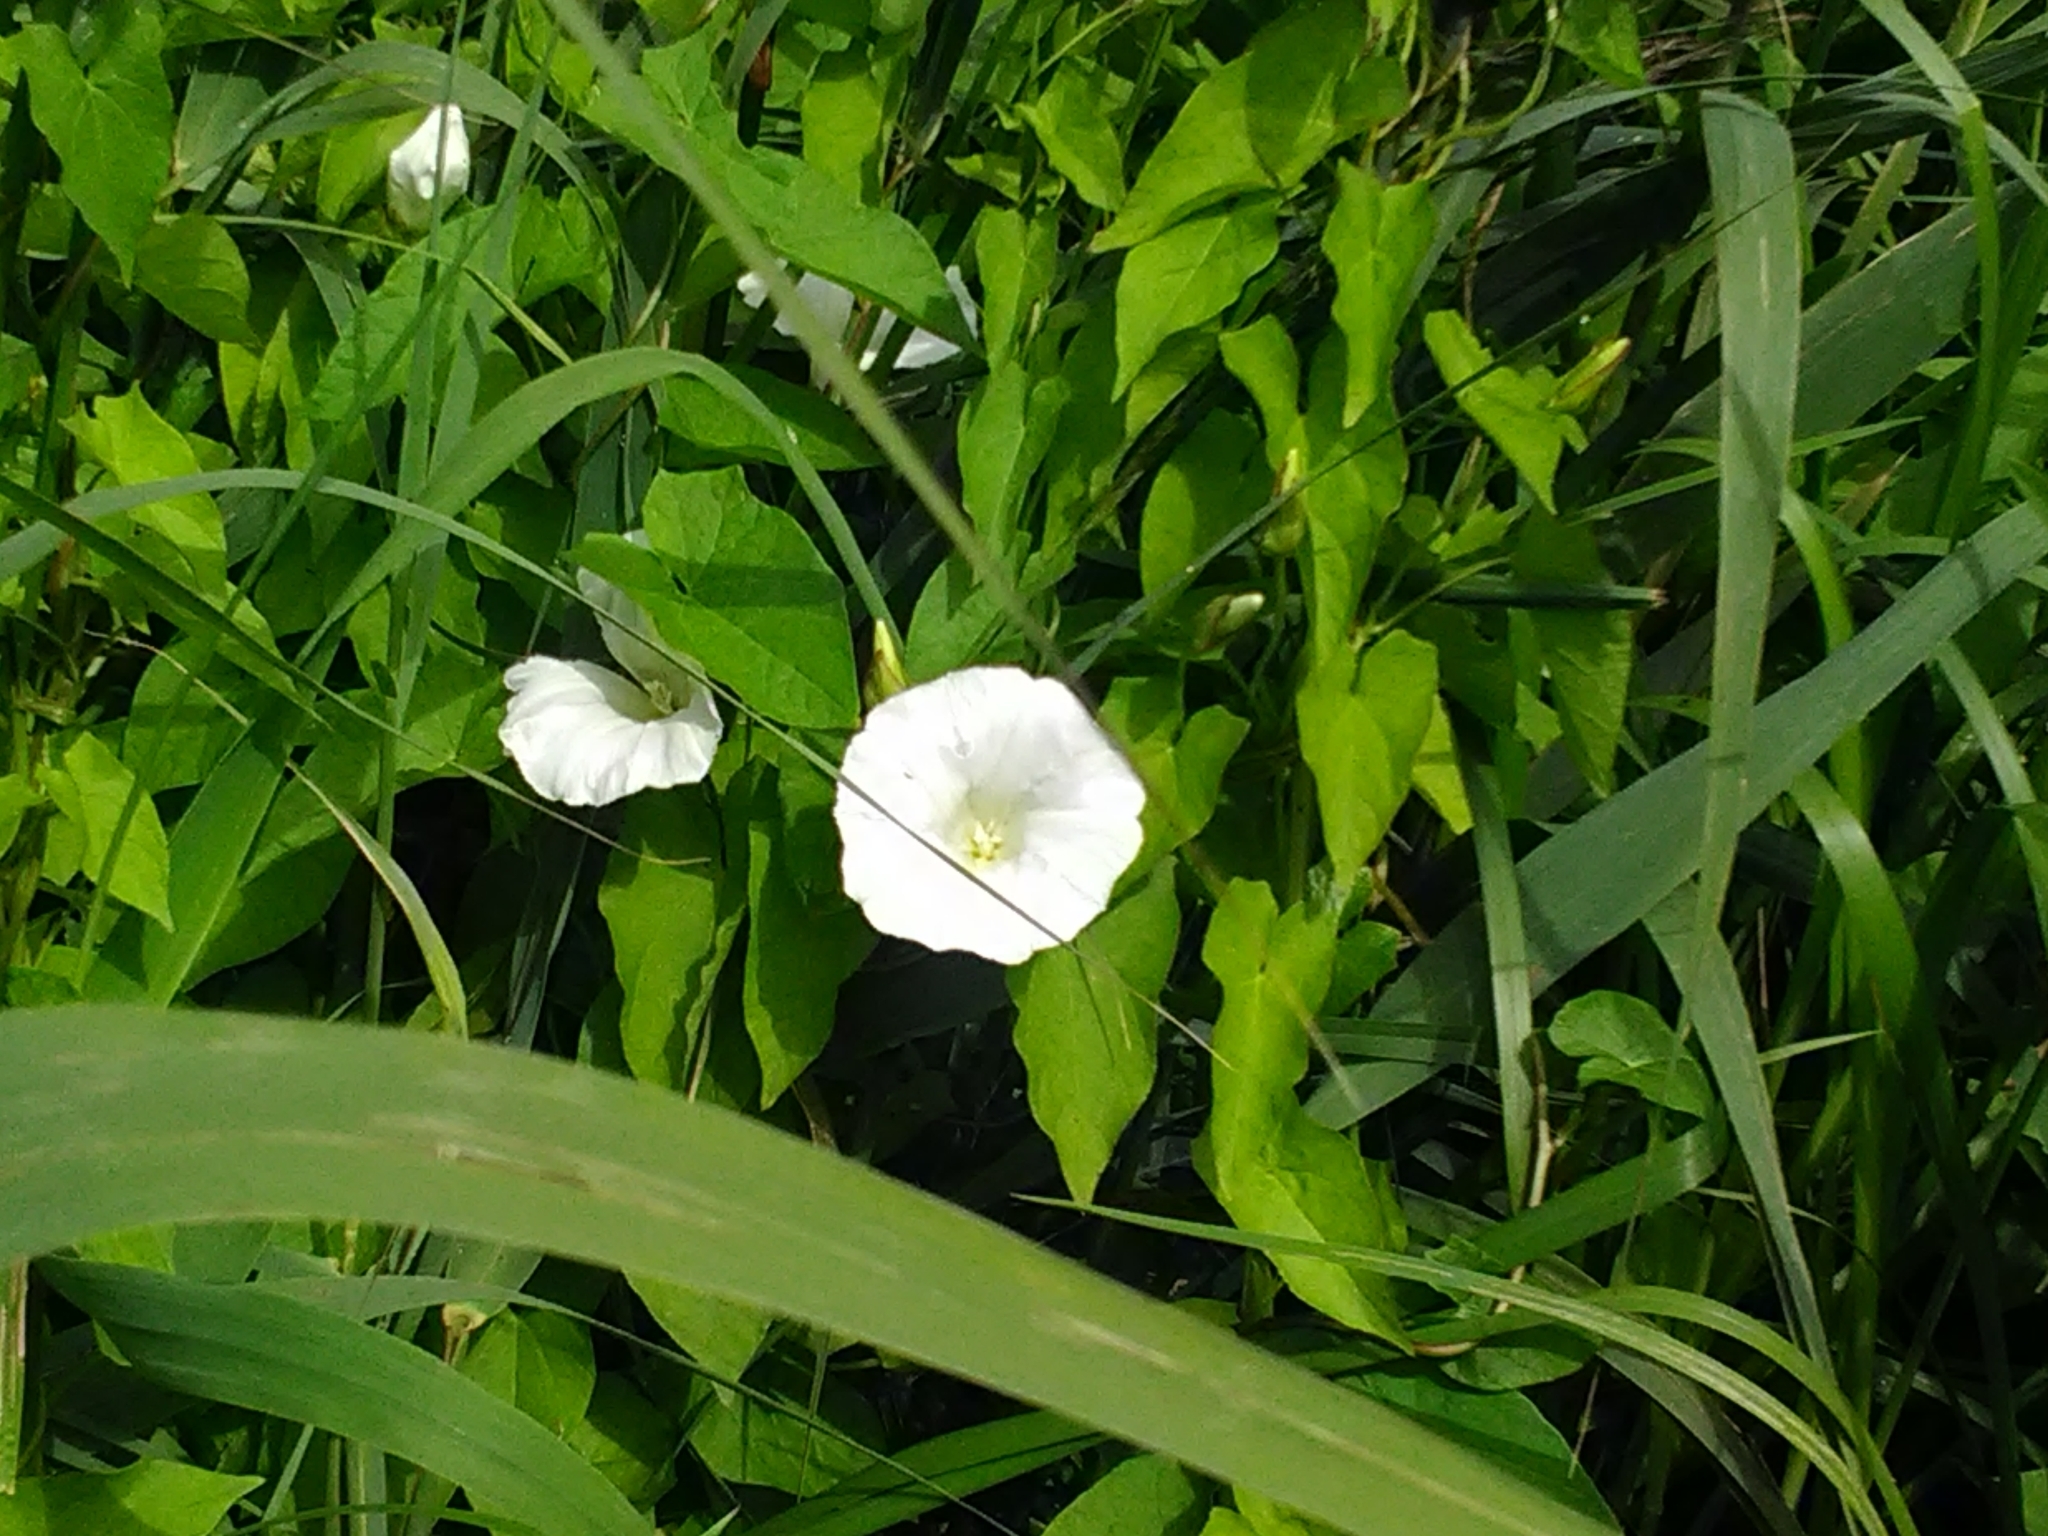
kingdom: Plantae
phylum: Tracheophyta
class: Magnoliopsida
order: Solanales
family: Convolvulaceae
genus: Calystegia
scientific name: Calystegia sepium
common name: Hedge bindweed
